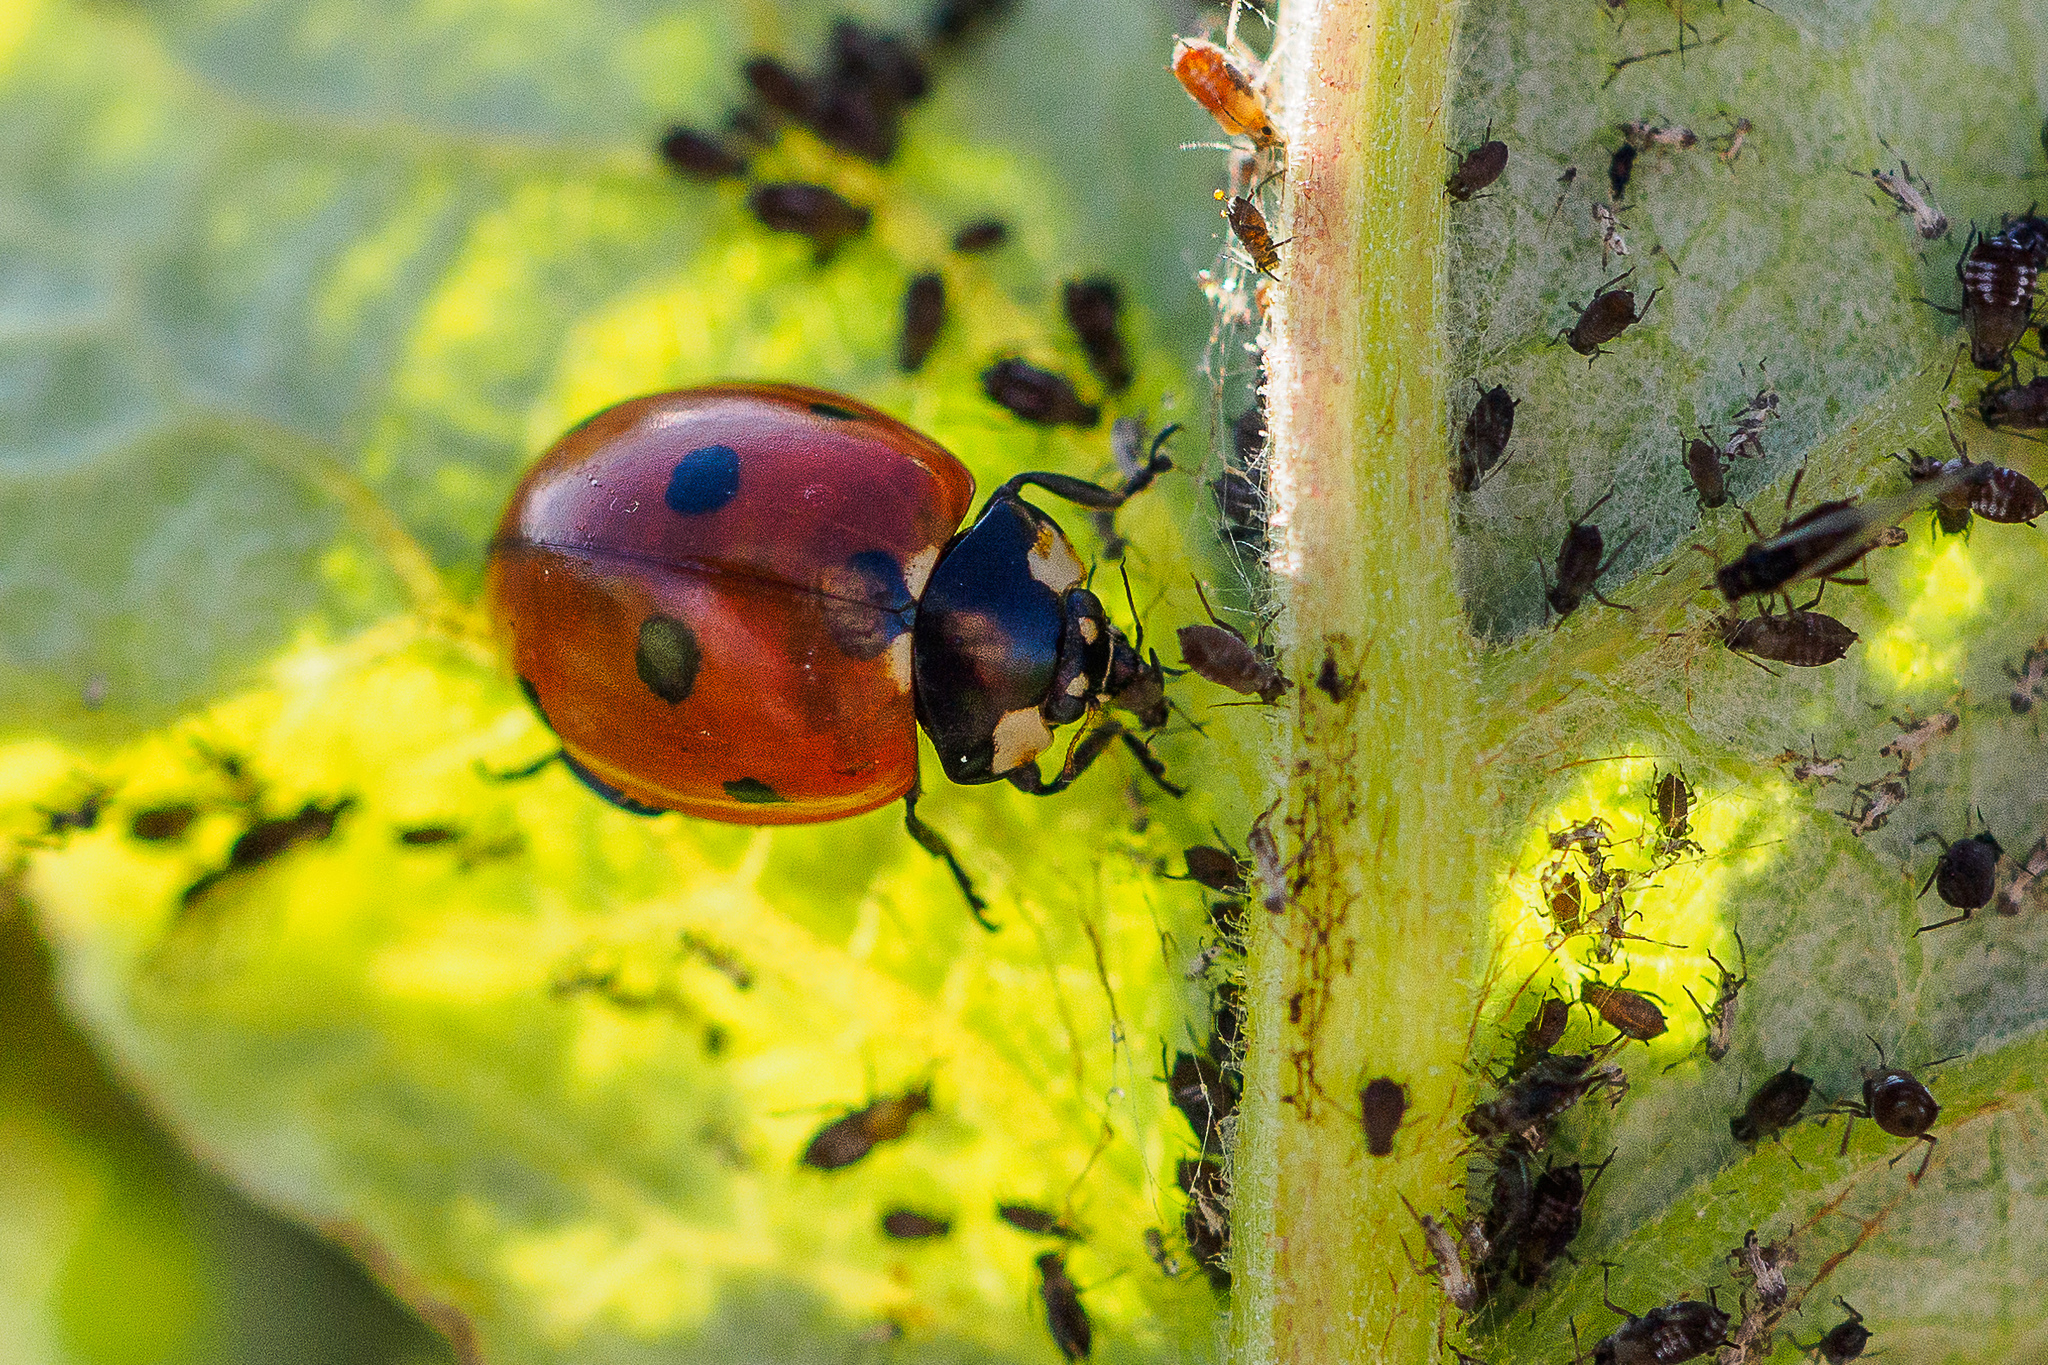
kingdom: Animalia
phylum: Arthropoda
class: Insecta
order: Coleoptera
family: Coccinellidae
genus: Coccinella
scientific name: Coccinella septempunctata
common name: Sevenspotted lady beetle
